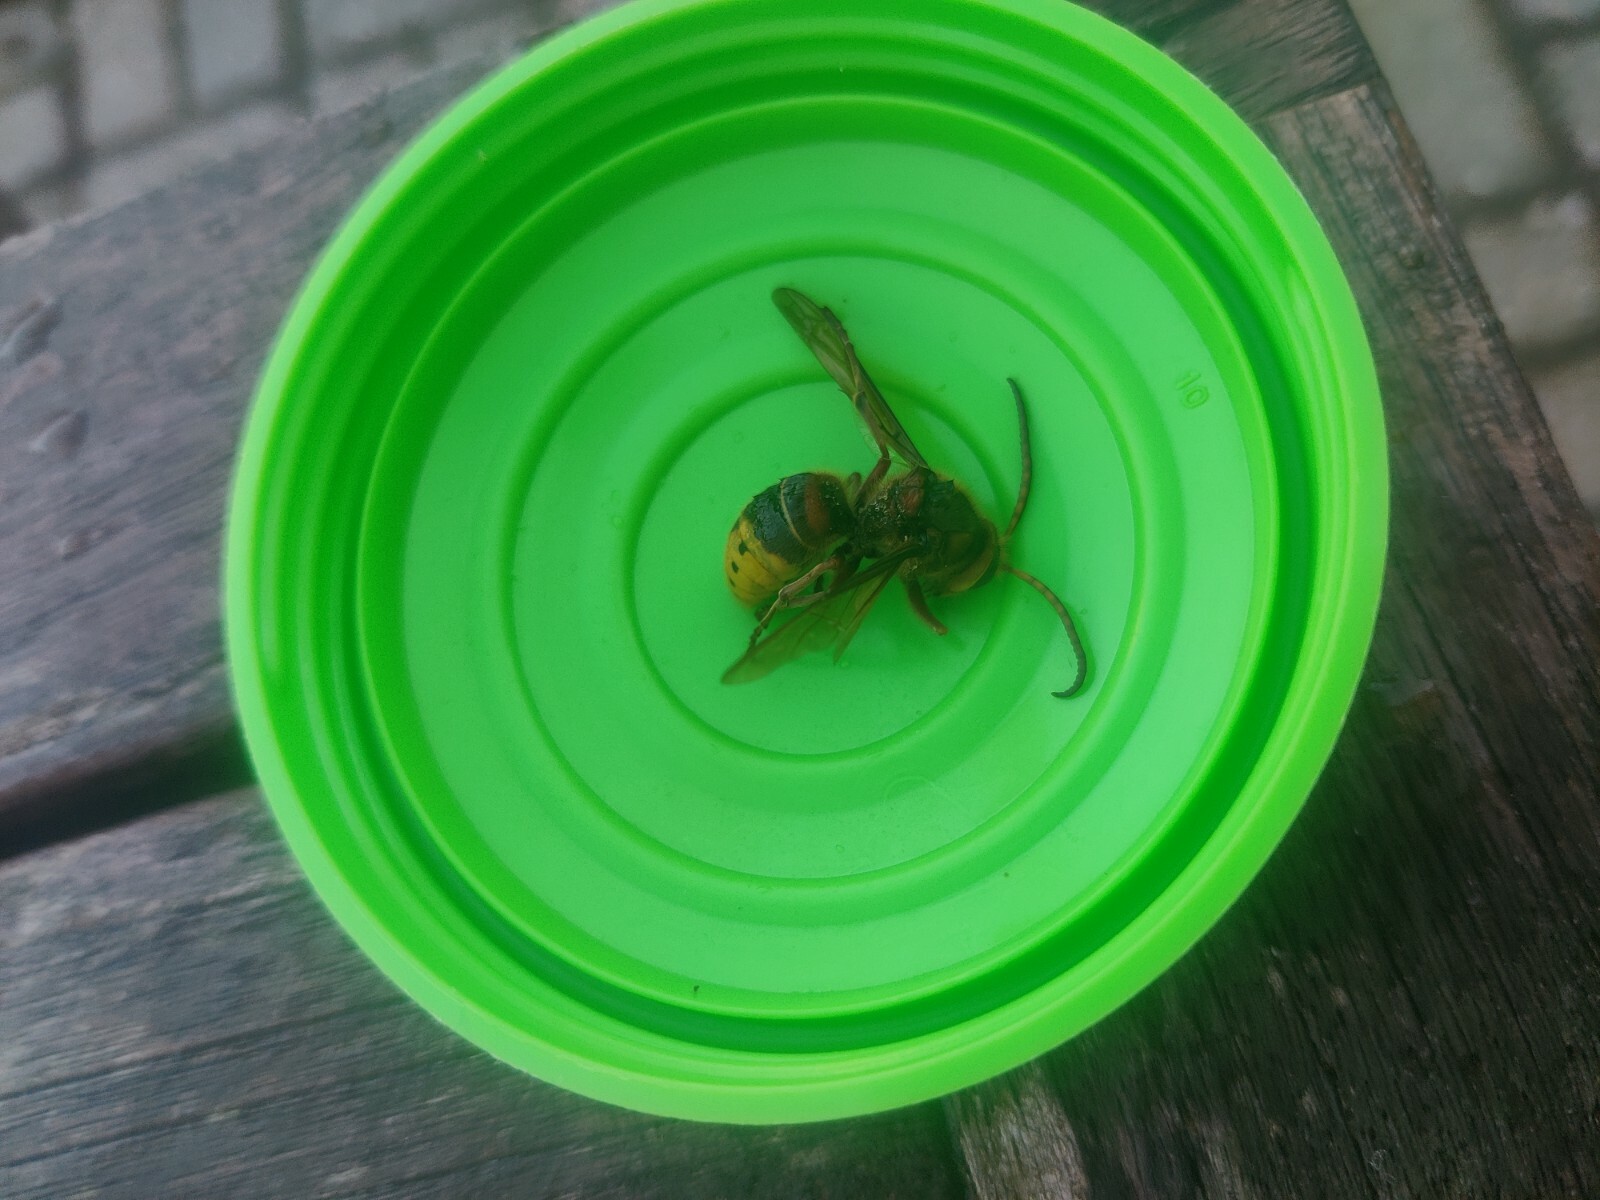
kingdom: Animalia
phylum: Arthropoda
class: Insecta
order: Hymenoptera
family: Vespidae
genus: Vespa
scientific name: Vespa crabro
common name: Hornet
